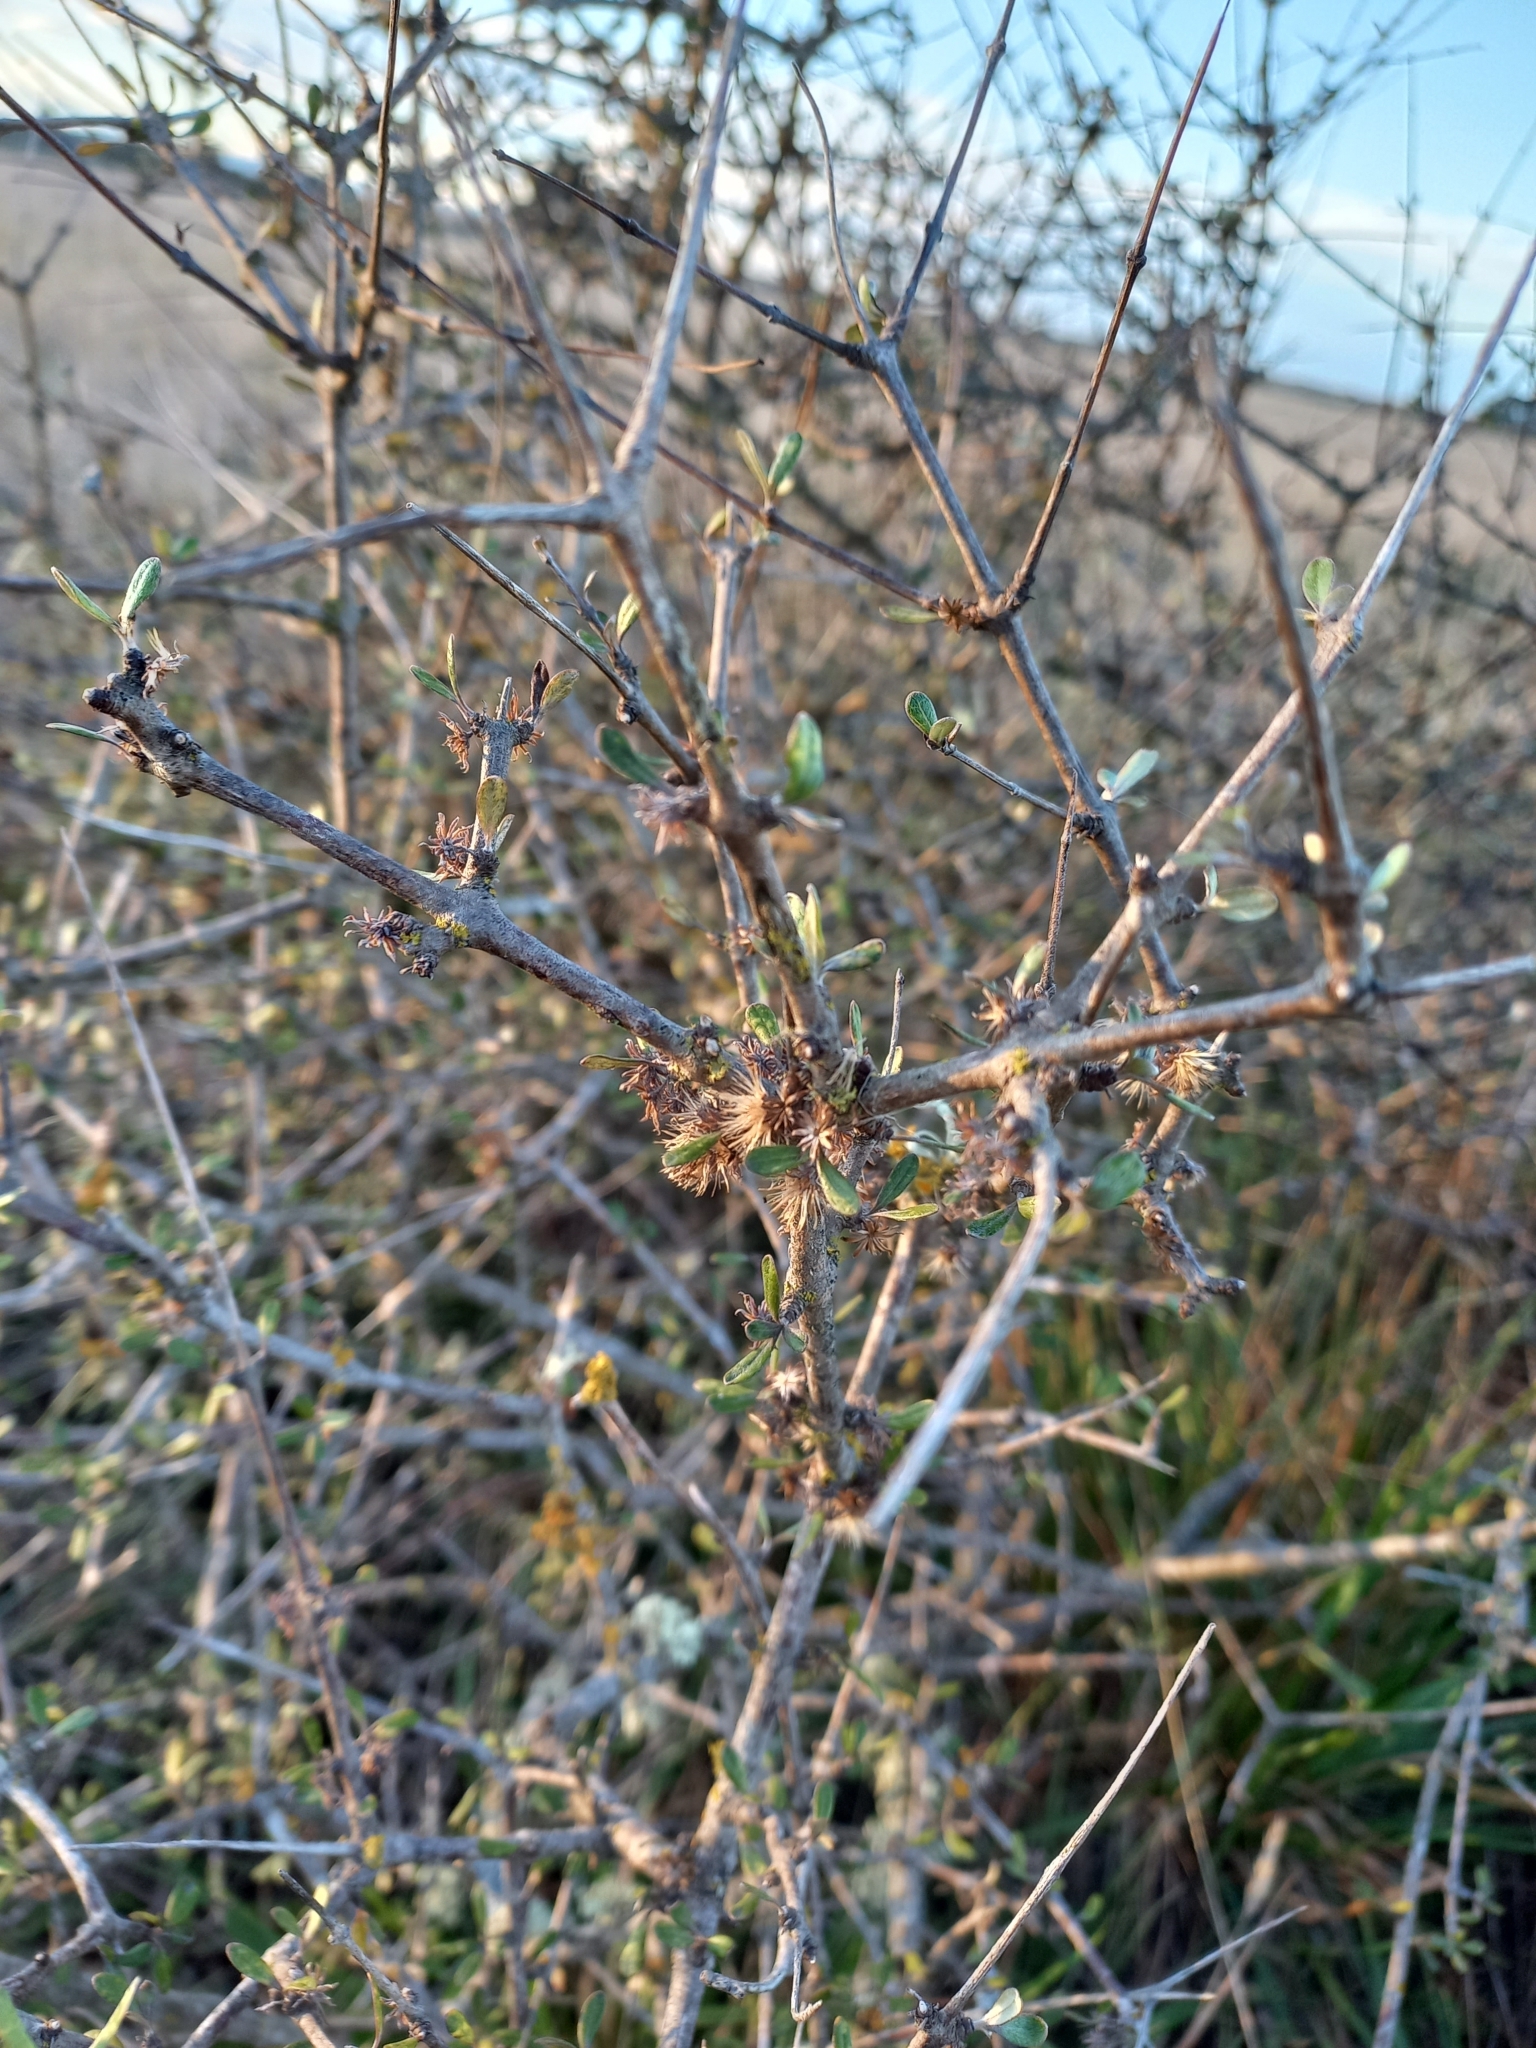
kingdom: Plantae
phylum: Tracheophyta
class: Magnoliopsida
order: Asterales
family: Asteraceae
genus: Olearia
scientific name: Olearia adenocarpa
